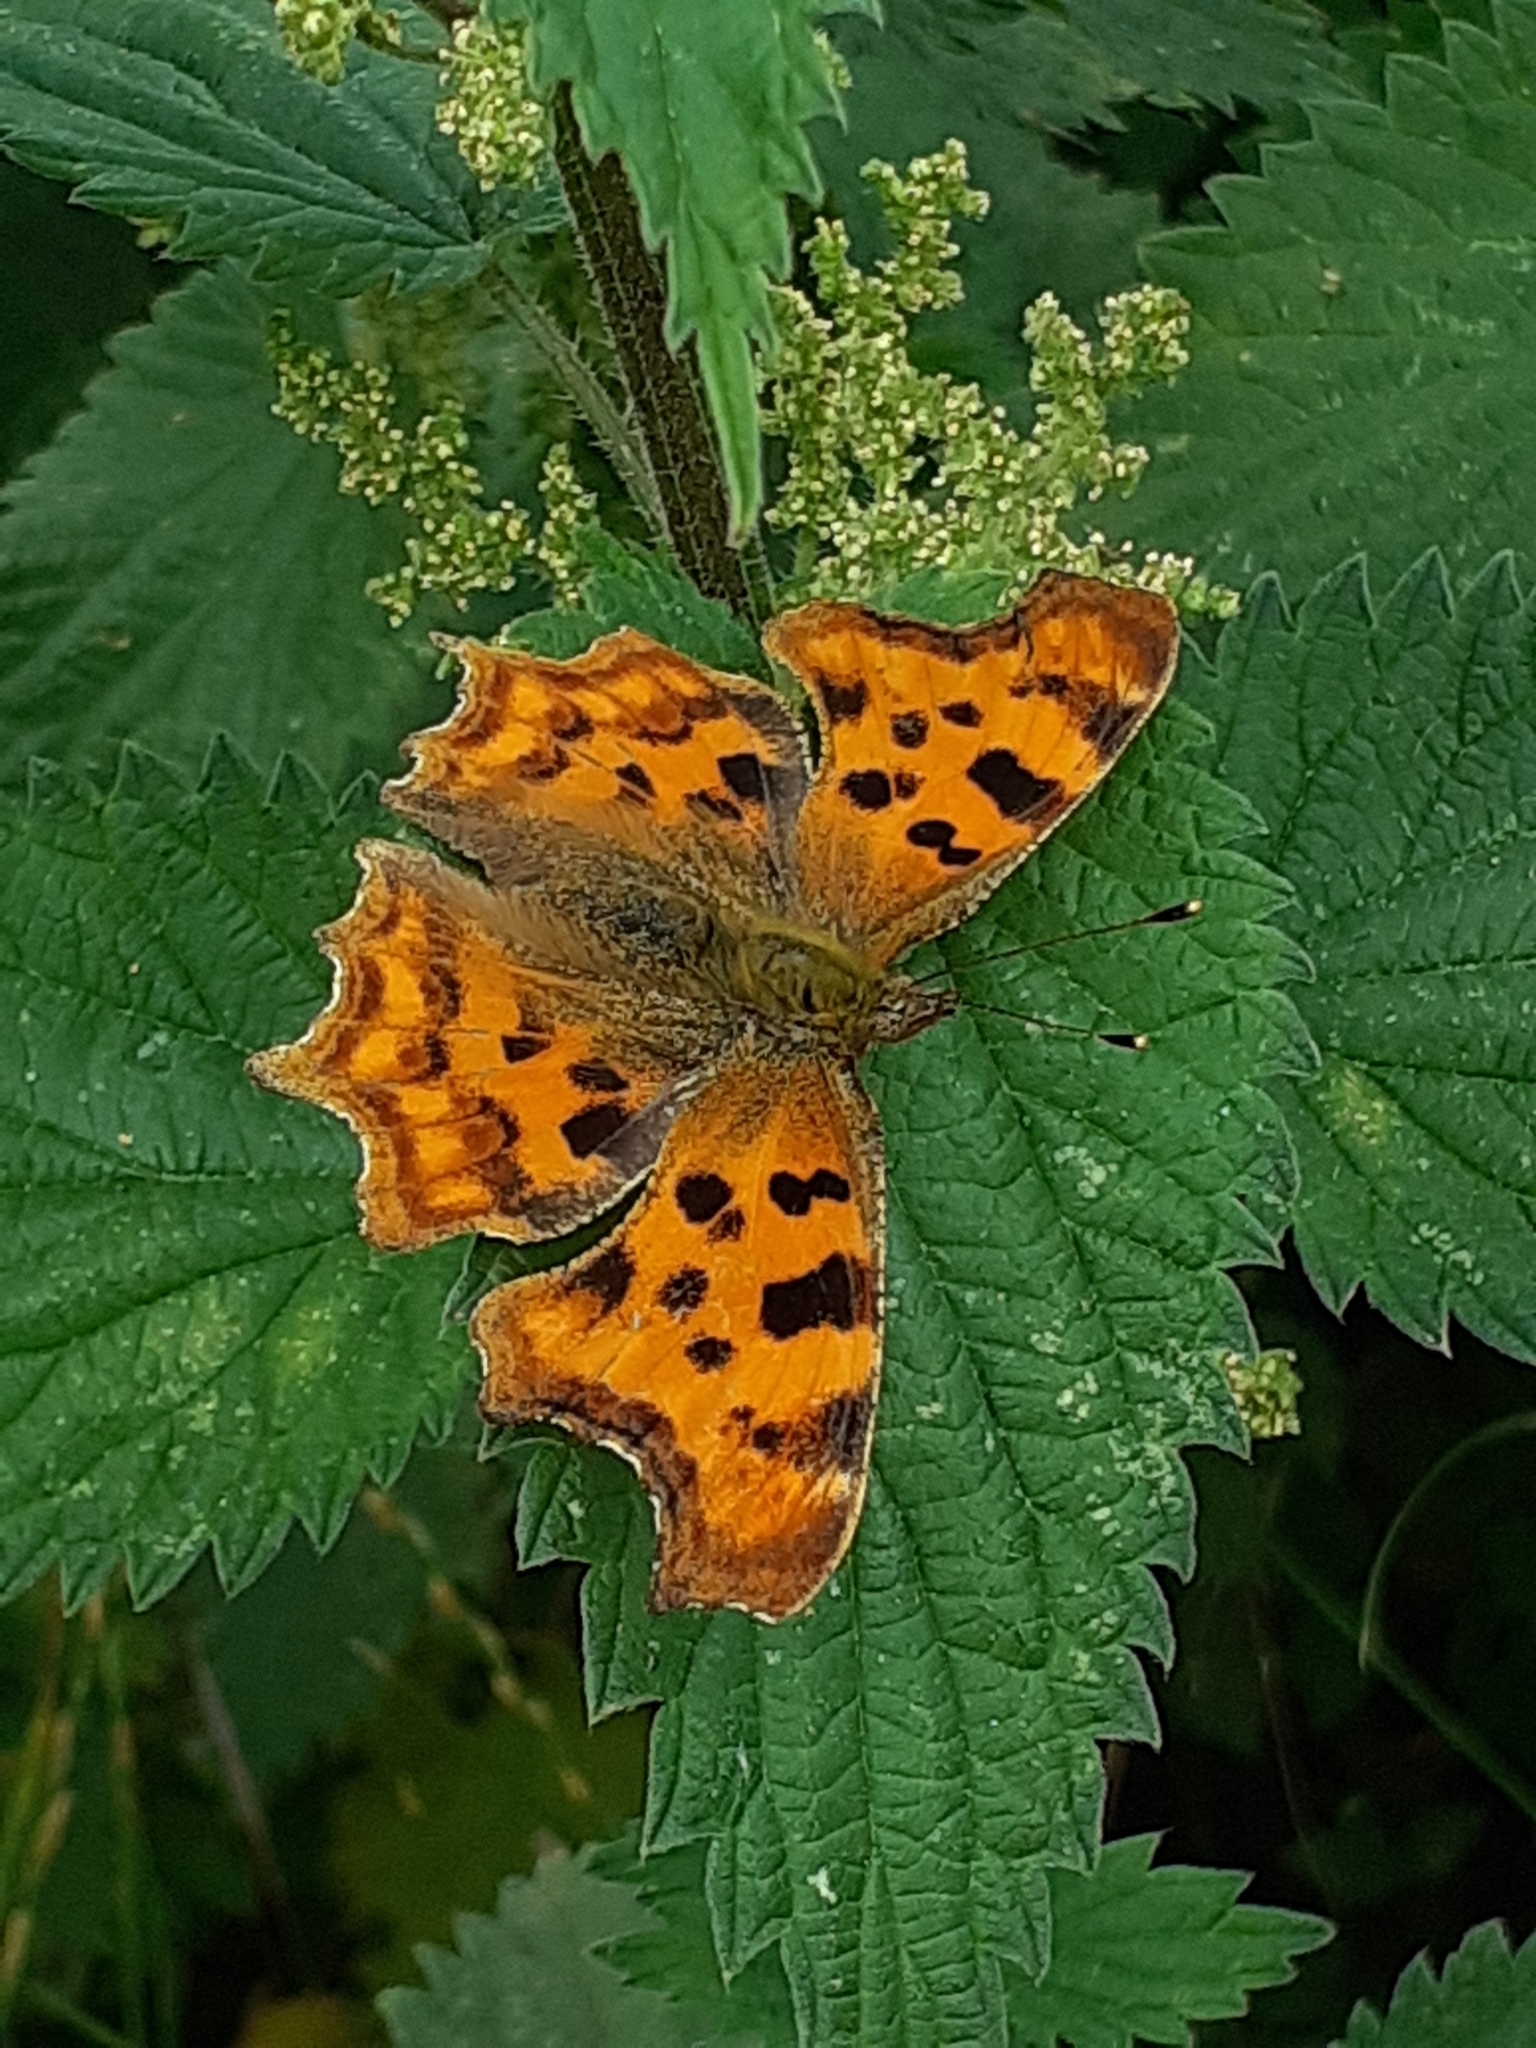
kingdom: Animalia
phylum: Arthropoda
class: Insecta
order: Lepidoptera
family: Nymphalidae
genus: Polygonia
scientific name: Polygonia c-album
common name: Comma
